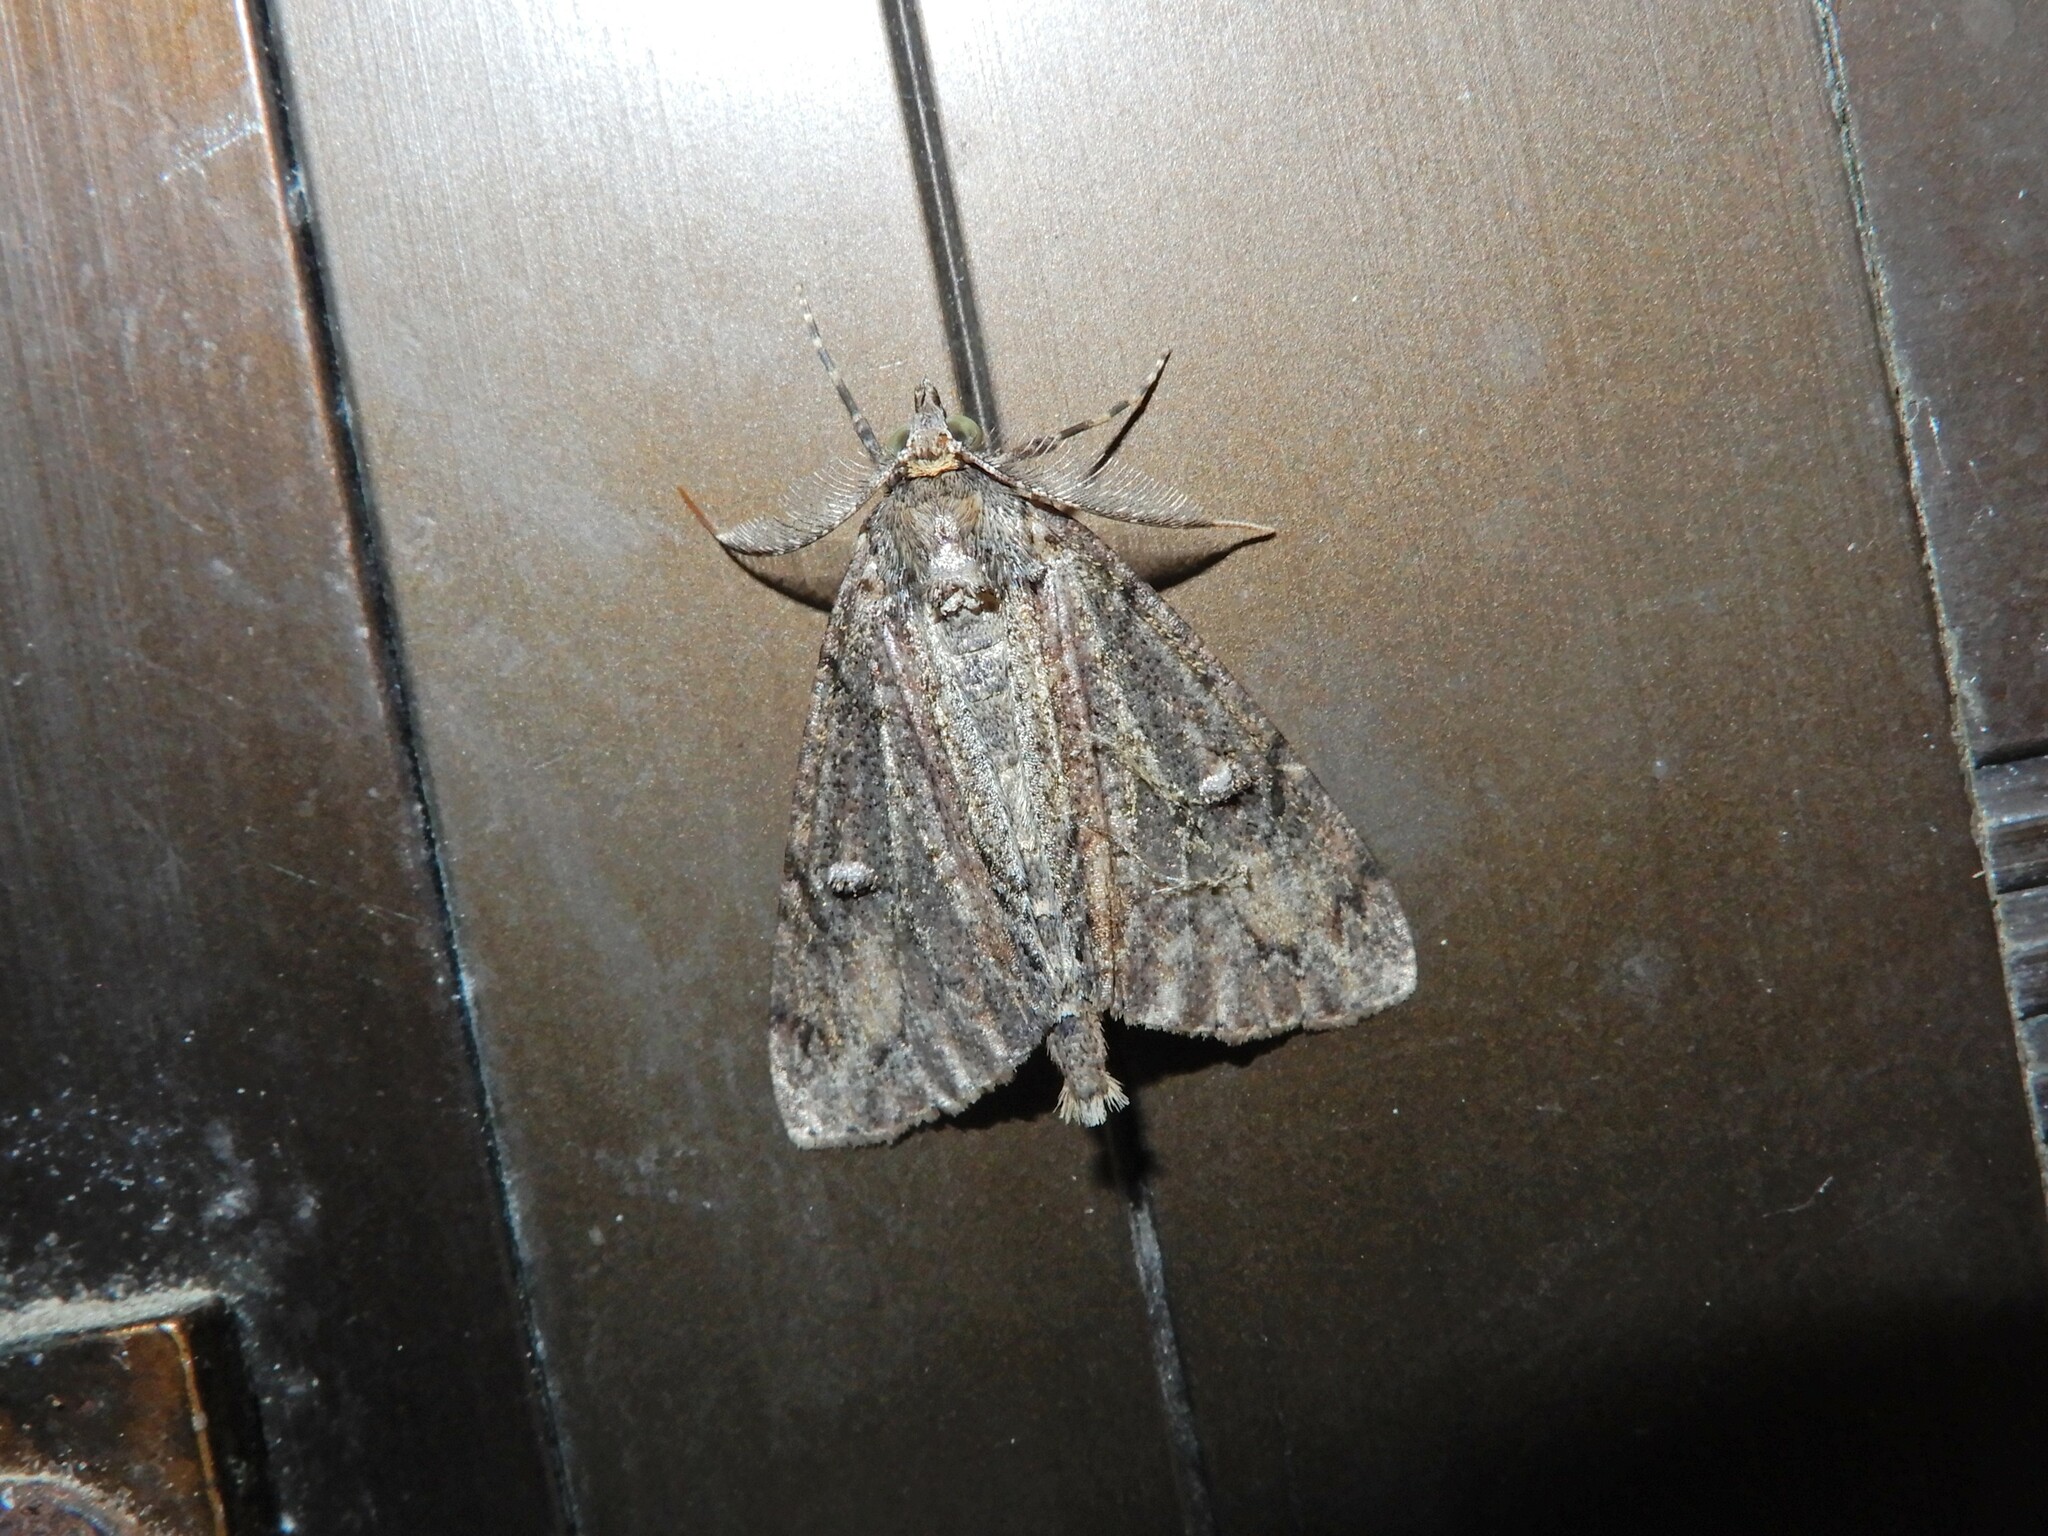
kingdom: Animalia
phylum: Arthropoda
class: Insecta
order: Lepidoptera
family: Geometridae
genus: Pseudocoremia
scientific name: Pseudocoremia suavis
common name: Common forest looper
